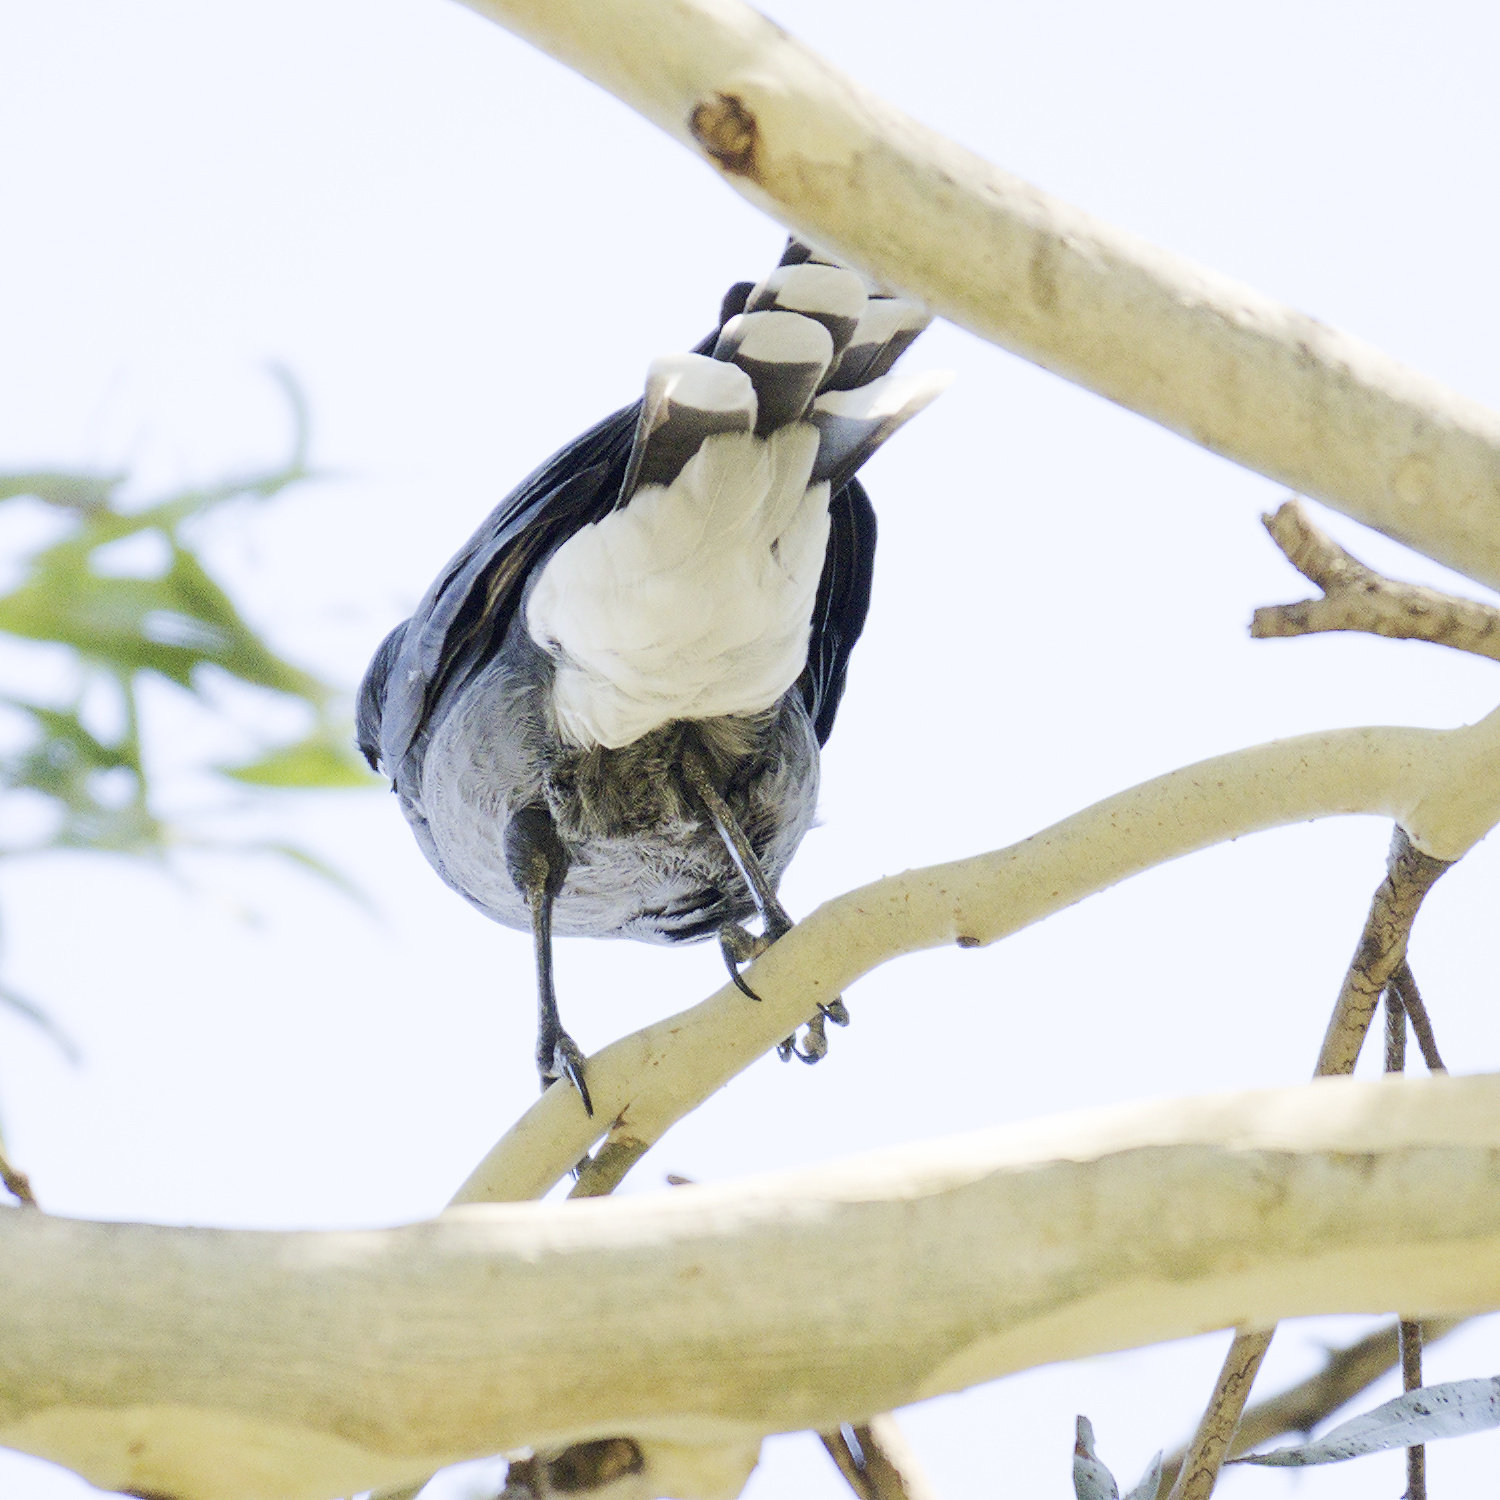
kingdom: Animalia
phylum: Chordata
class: Aves
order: Passeriformes
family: Cracticidae
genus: Strepera
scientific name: Strepera graculina
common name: Pied currawong
